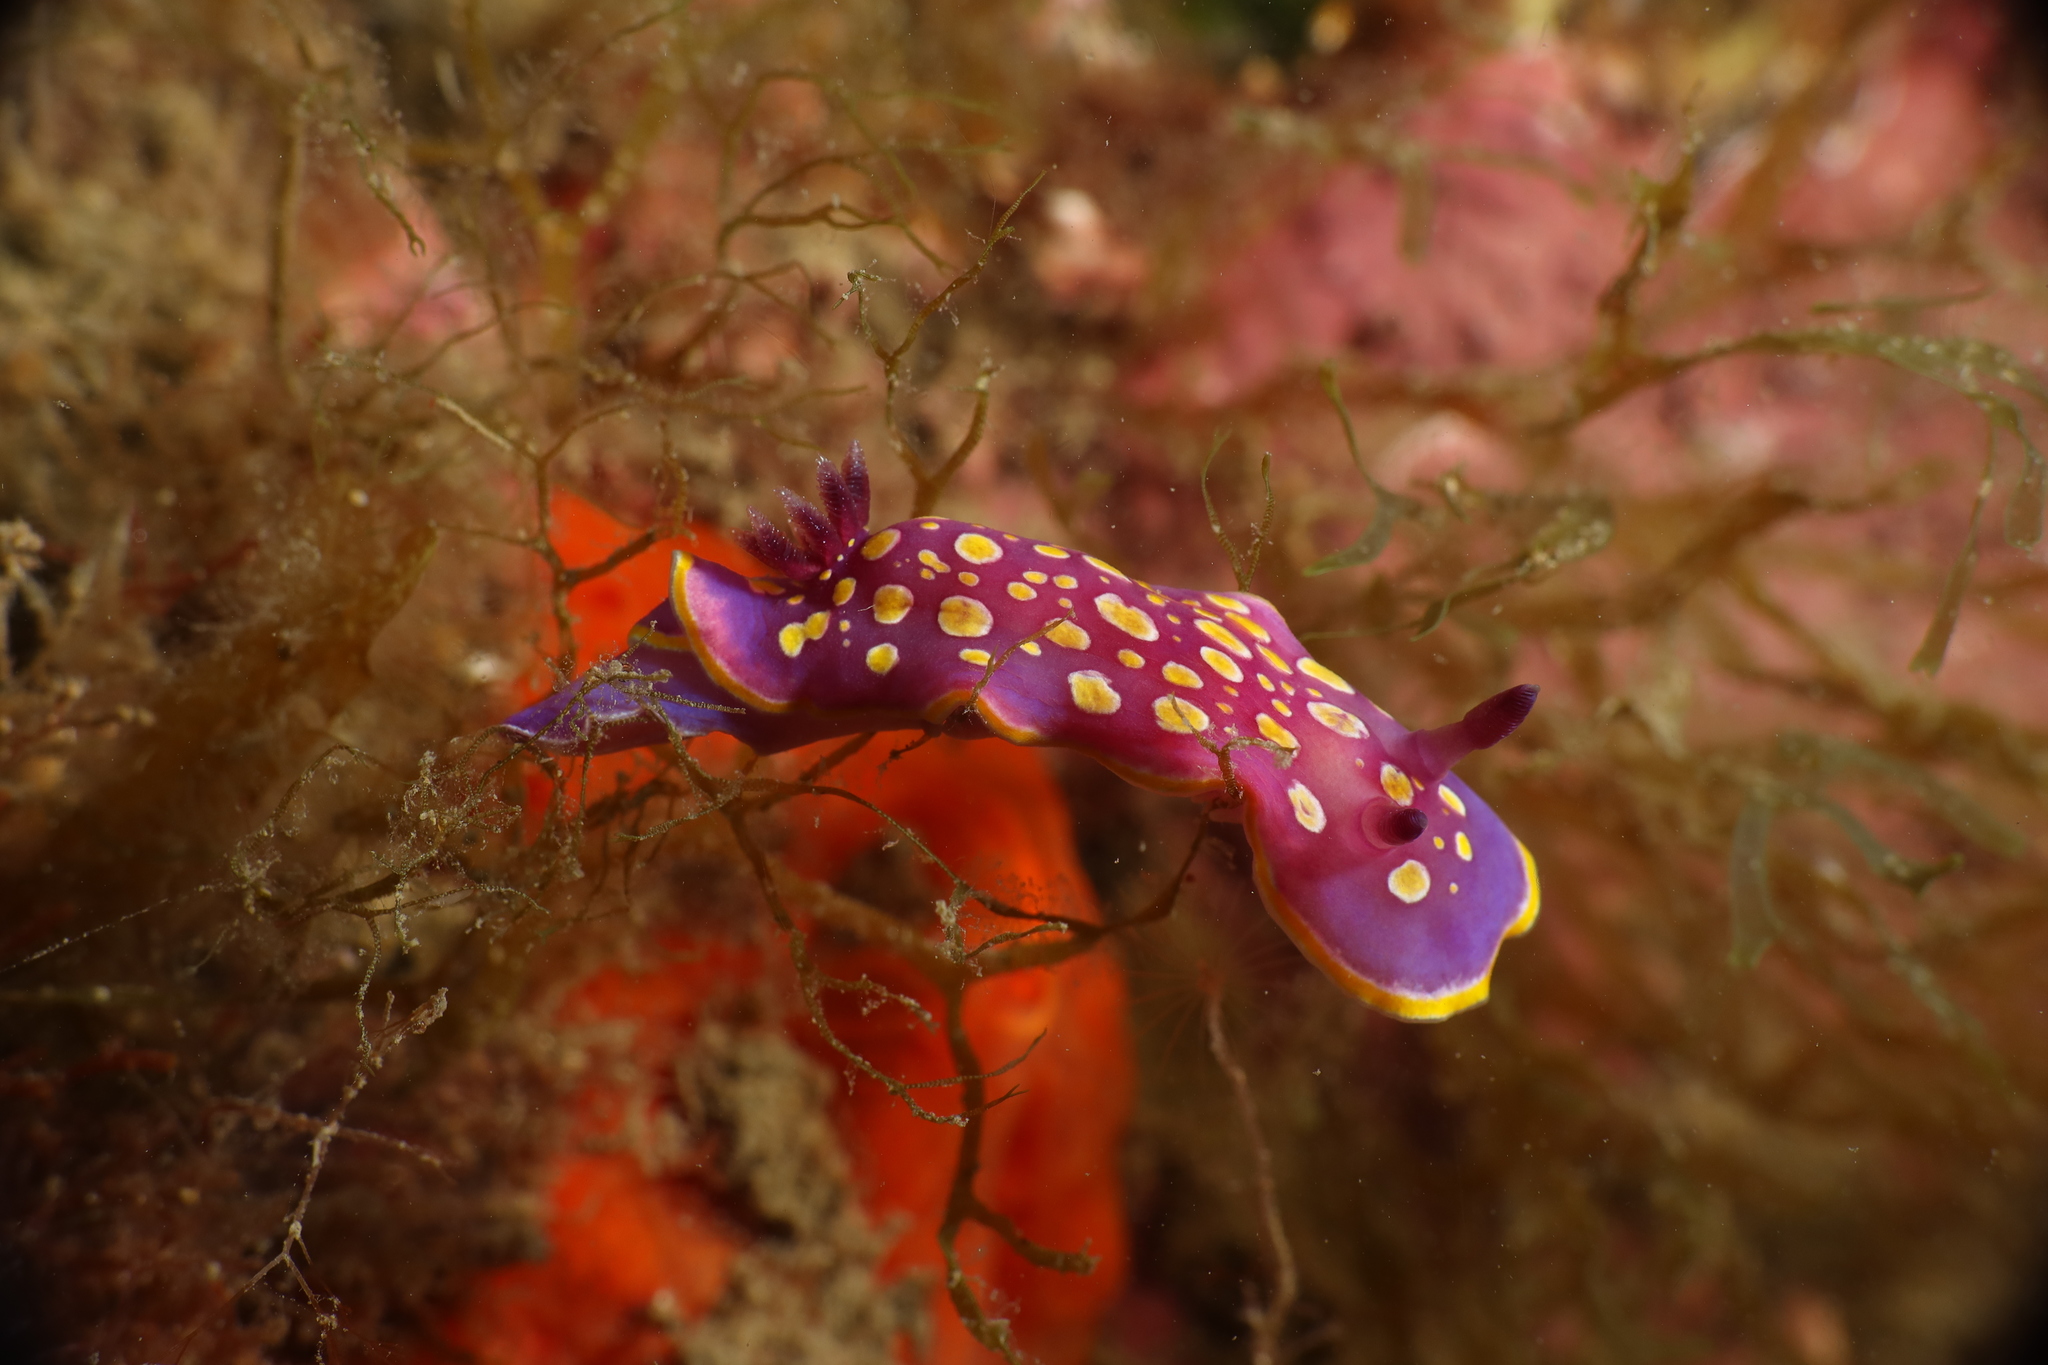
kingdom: Animalia
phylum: Mollusca
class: Gastropoda
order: Nudibranchia
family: Chromodorididae
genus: Felimida
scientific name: Felimida luteorosea
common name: Yellow-dotted doris
